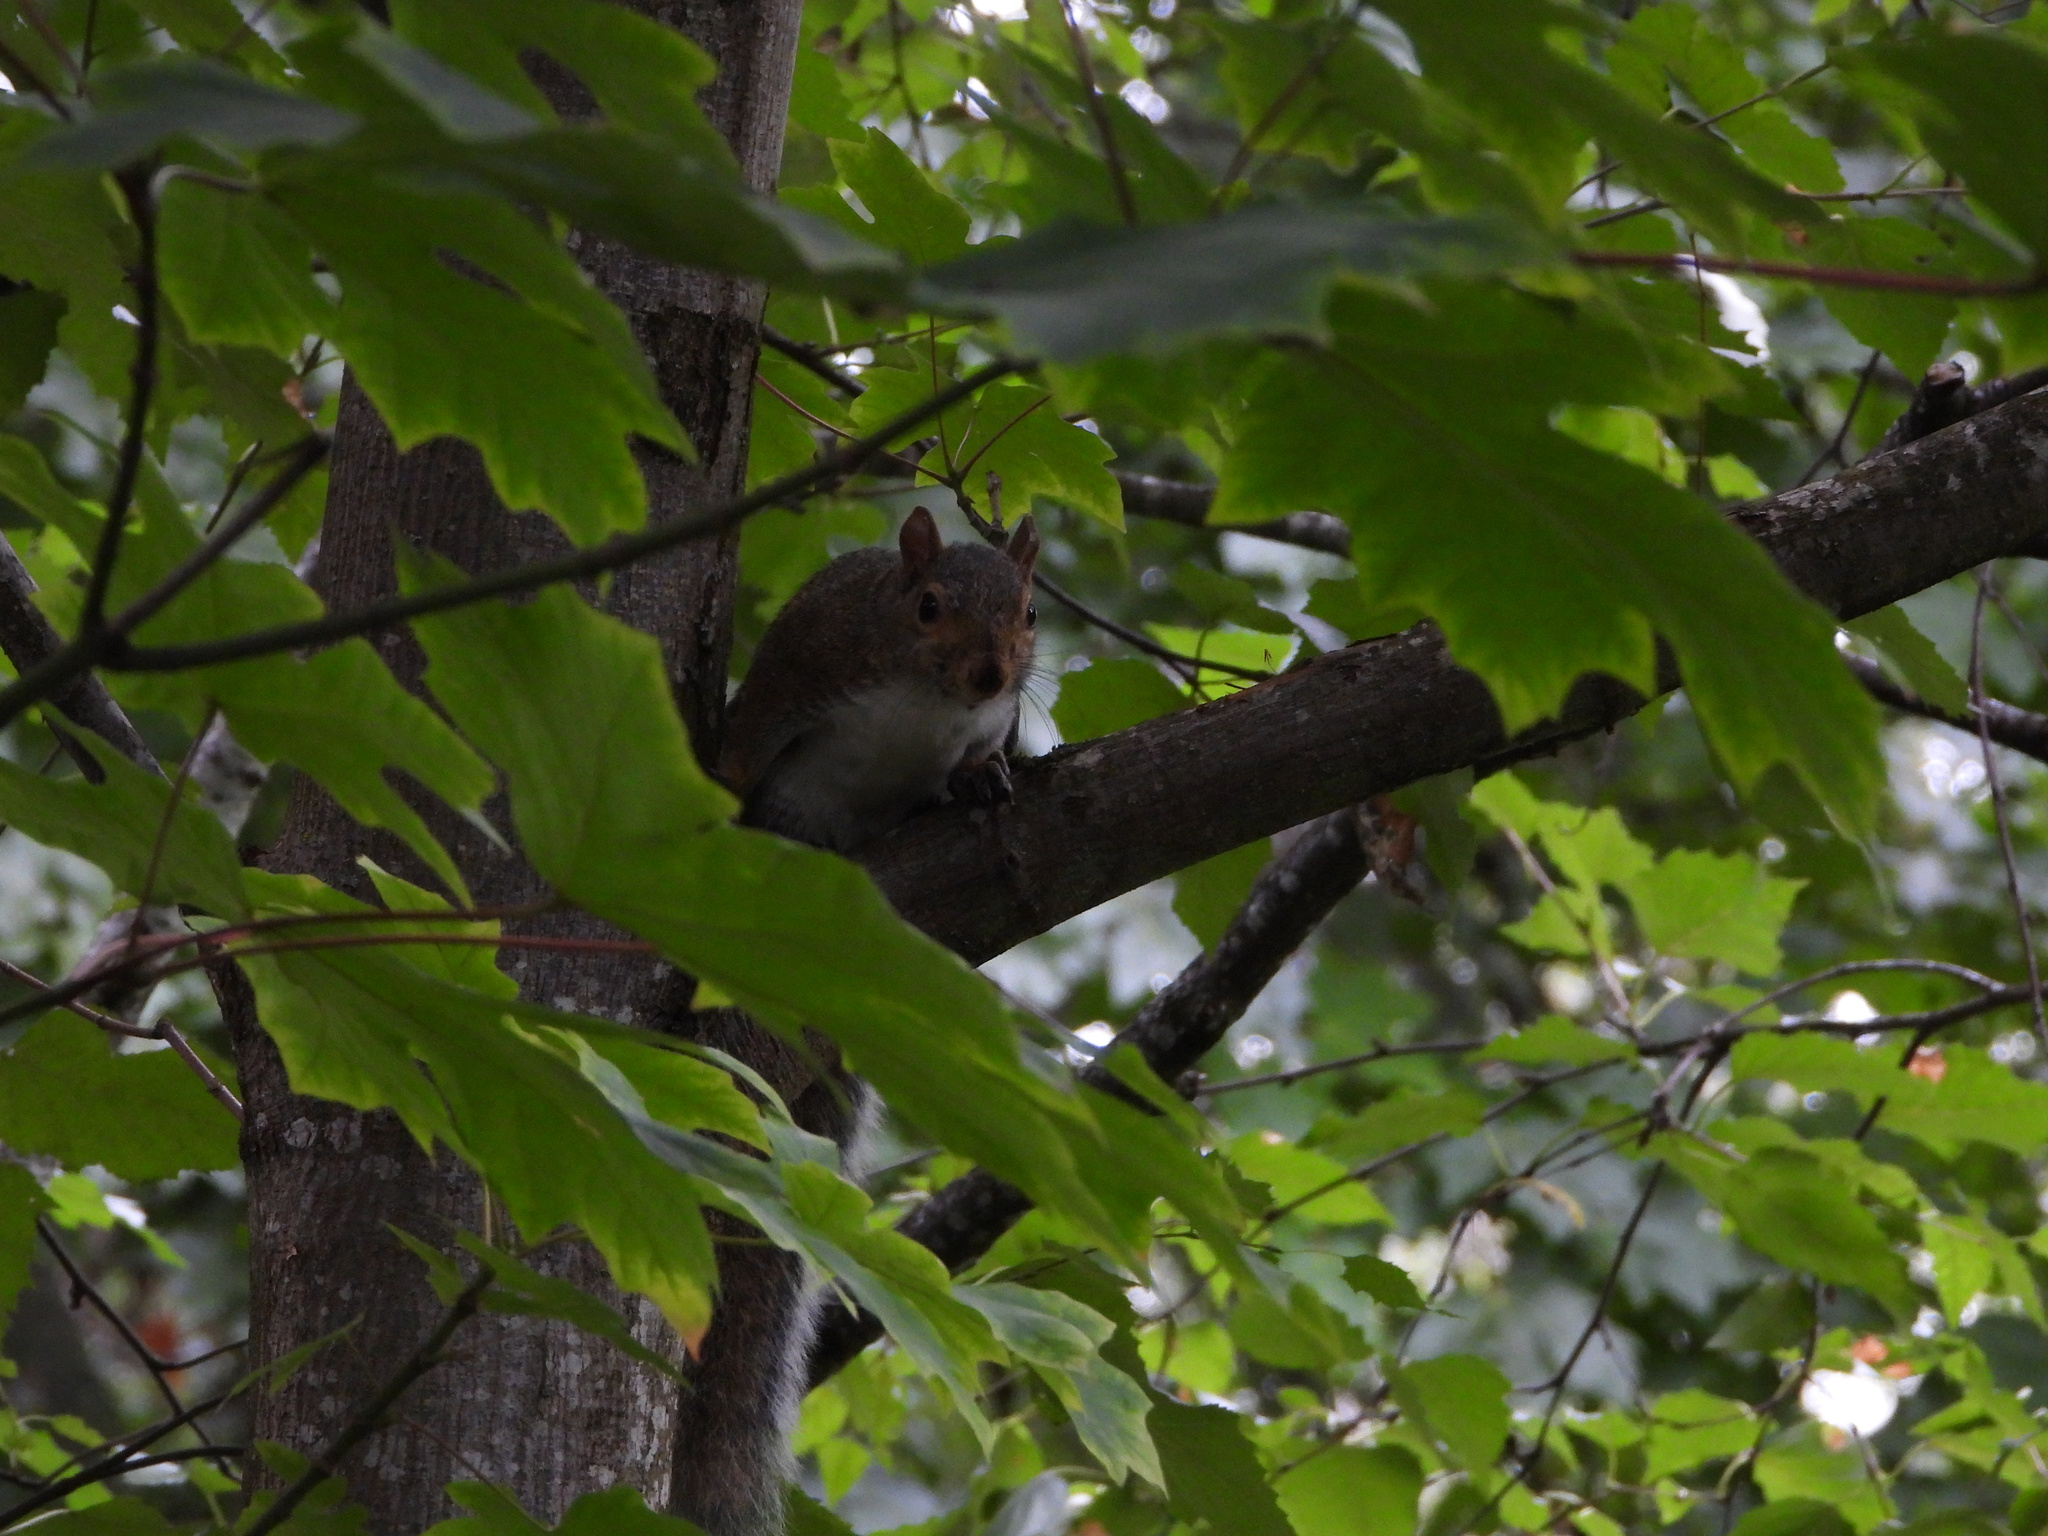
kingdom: Animalia
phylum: Chordata
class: Mammalia
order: Rodentia
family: Sciuridae
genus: Sciurus
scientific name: Sciurus carolinensis
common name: Eastern gray squirrel
